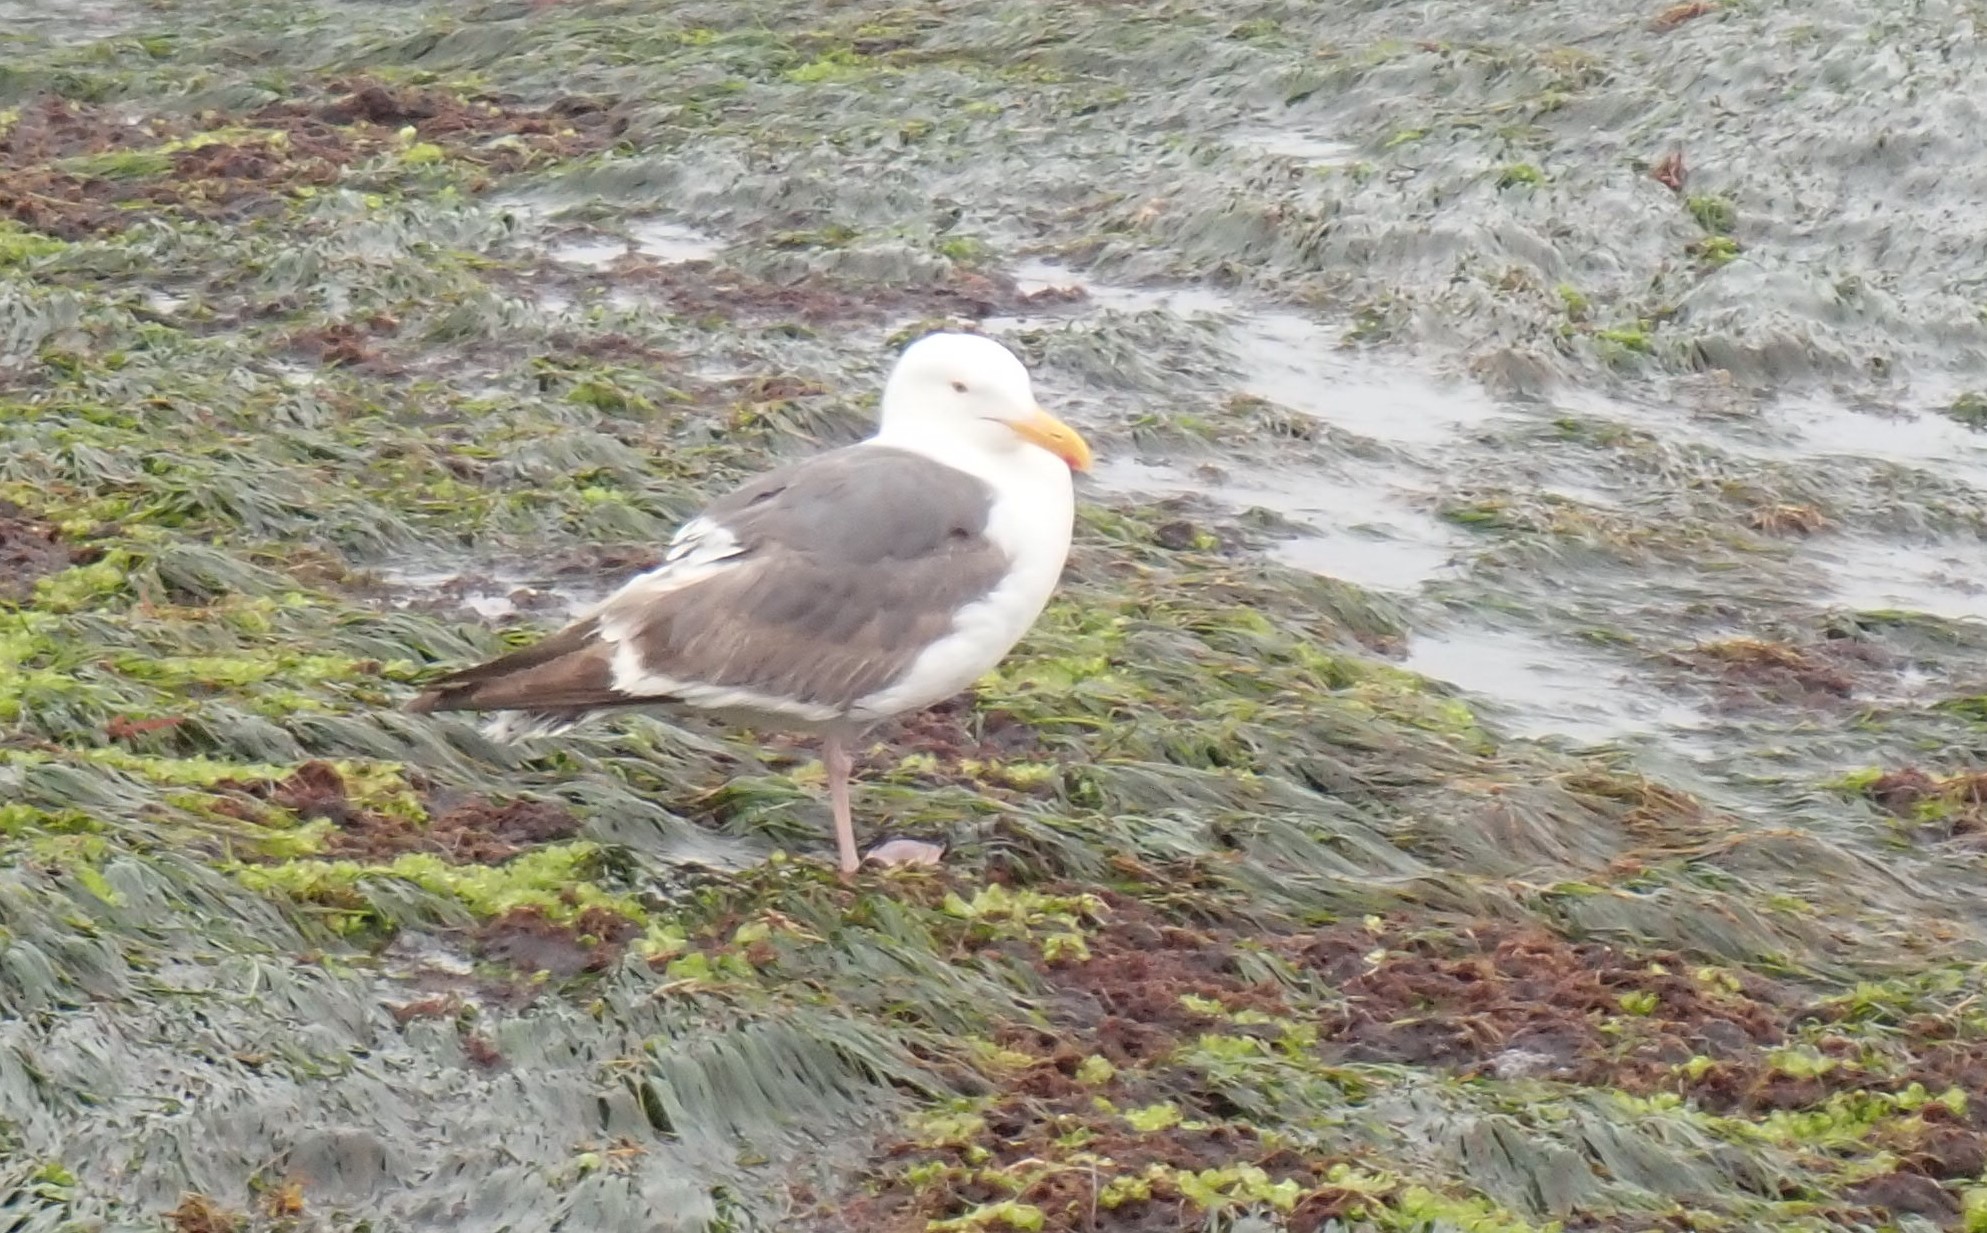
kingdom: Animalia
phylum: Chordata
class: Aves
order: Charadriiformes
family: Laridae
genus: Larus
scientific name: Larus occidentalis
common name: Western gull
